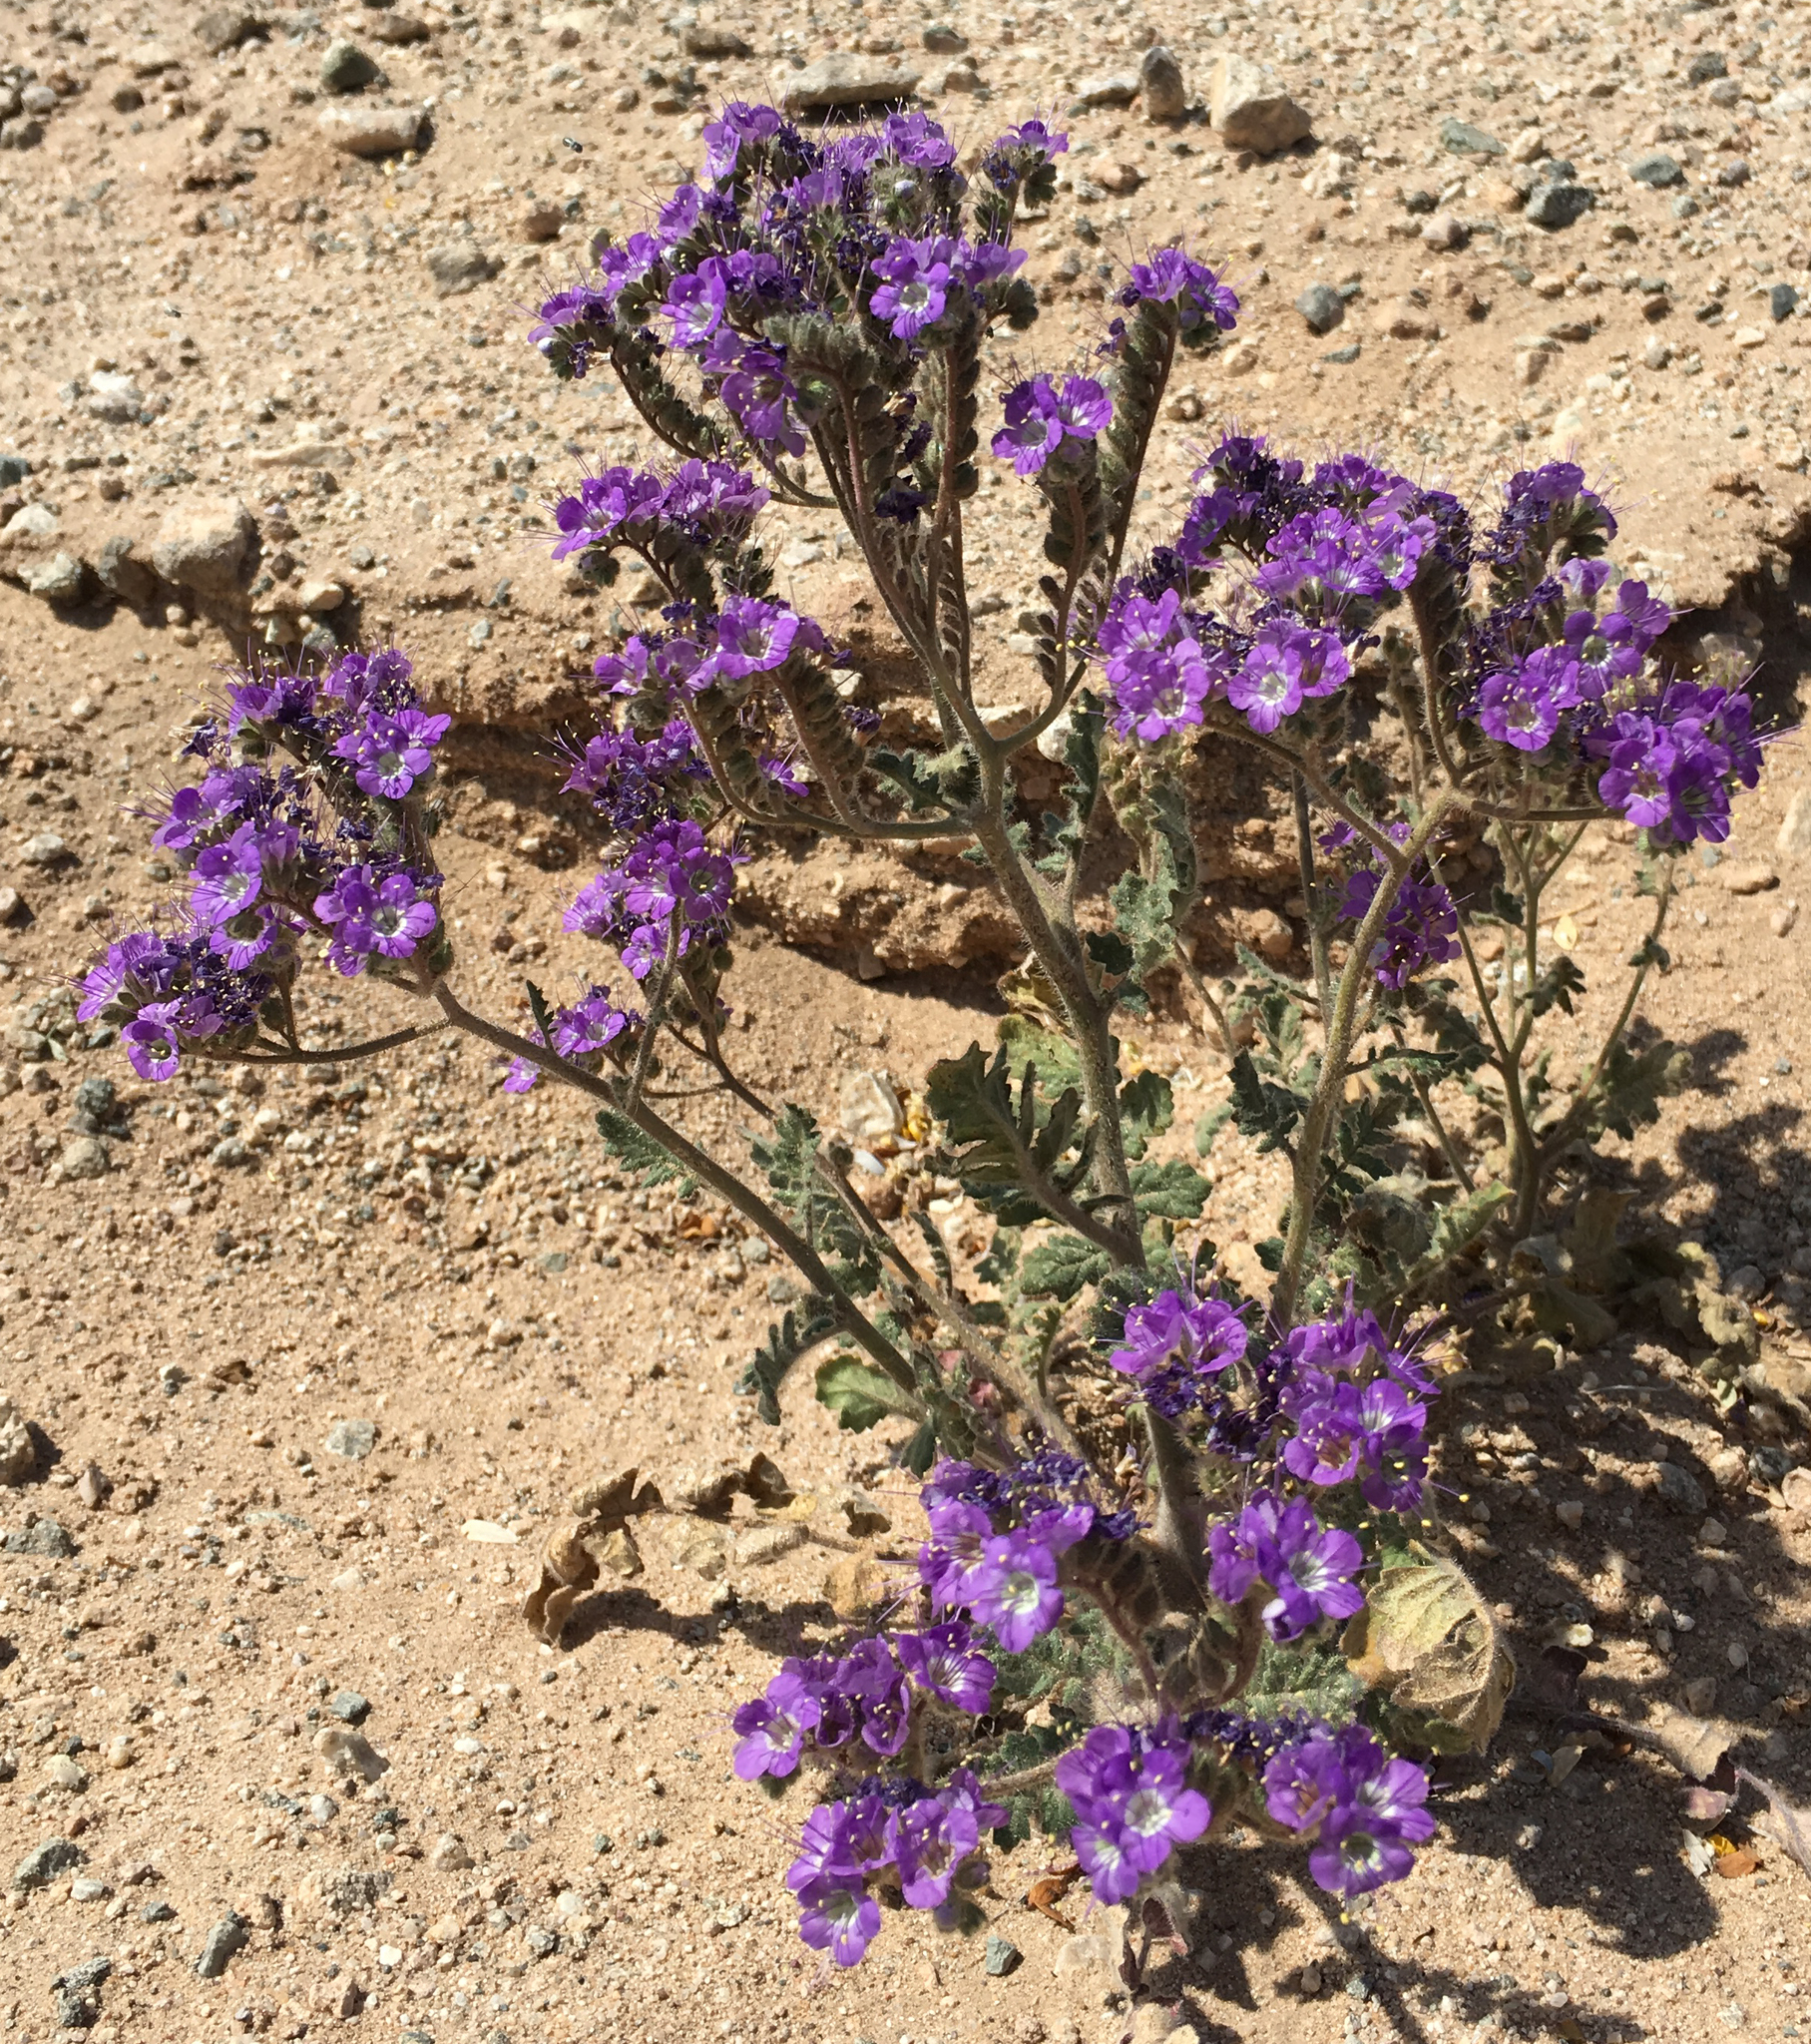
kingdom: Plantae
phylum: Tracheophyta
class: Magnoliopsida
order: Boraginales
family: Hydrophyllaceae
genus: Phacelia
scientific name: Phacelia crenulata
